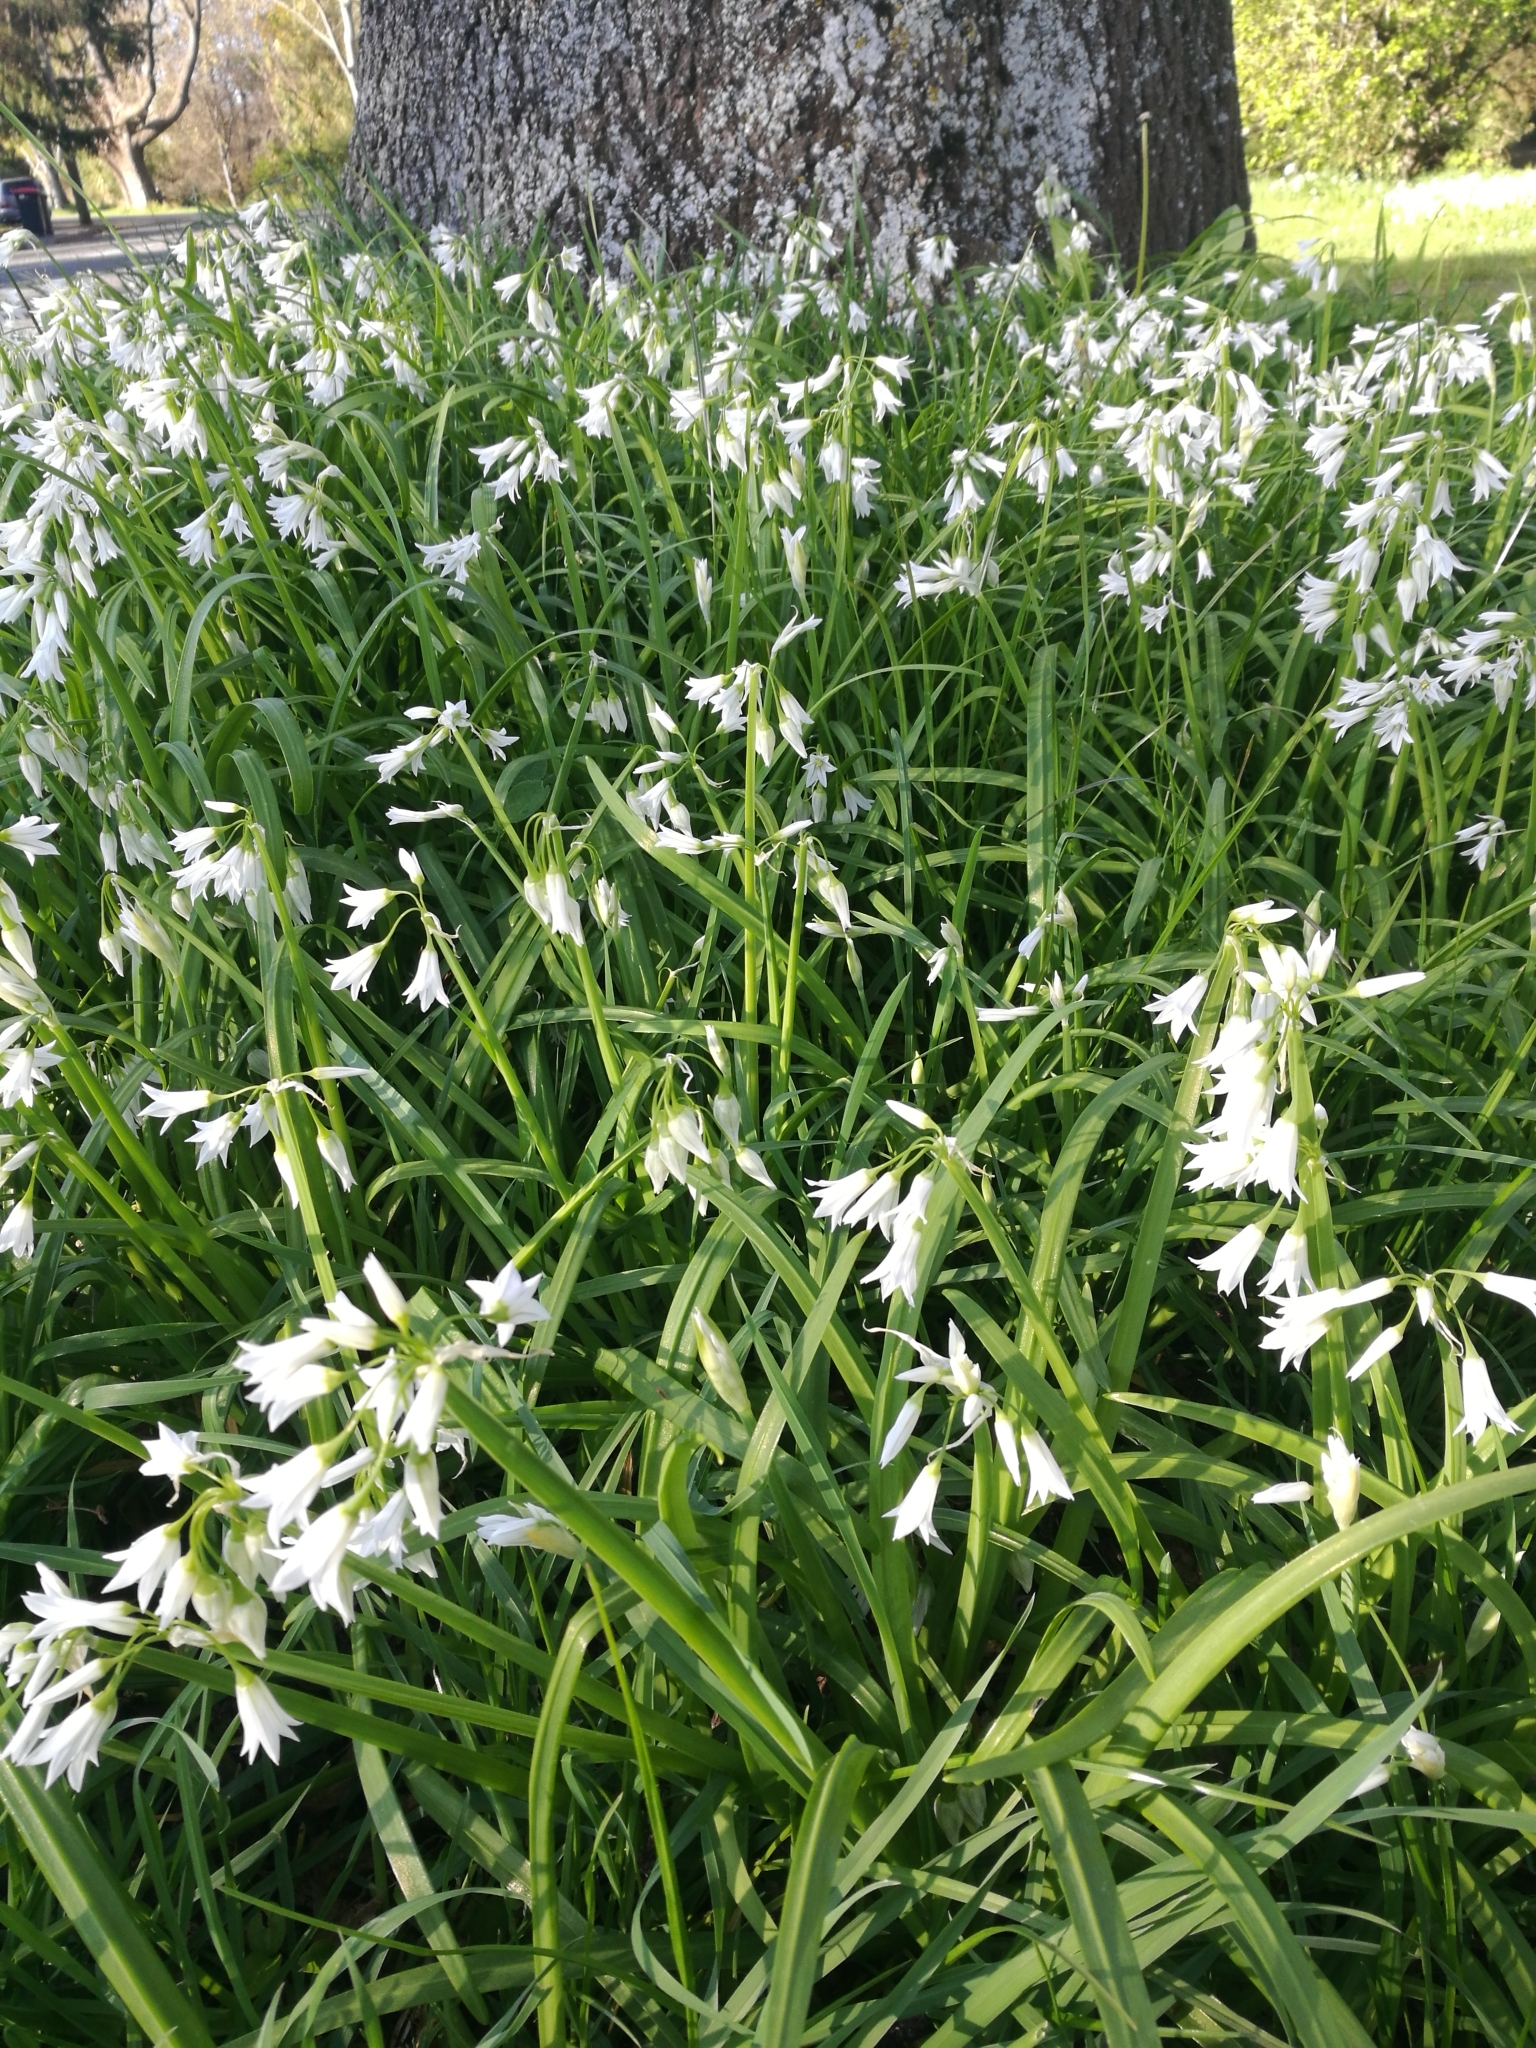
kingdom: Plantae
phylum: Tracheophyta
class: Liliopsida
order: Asparagales
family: Amaryllidaceae
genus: Allium
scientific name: Allium triquetrum
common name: Three-cornered garlic
